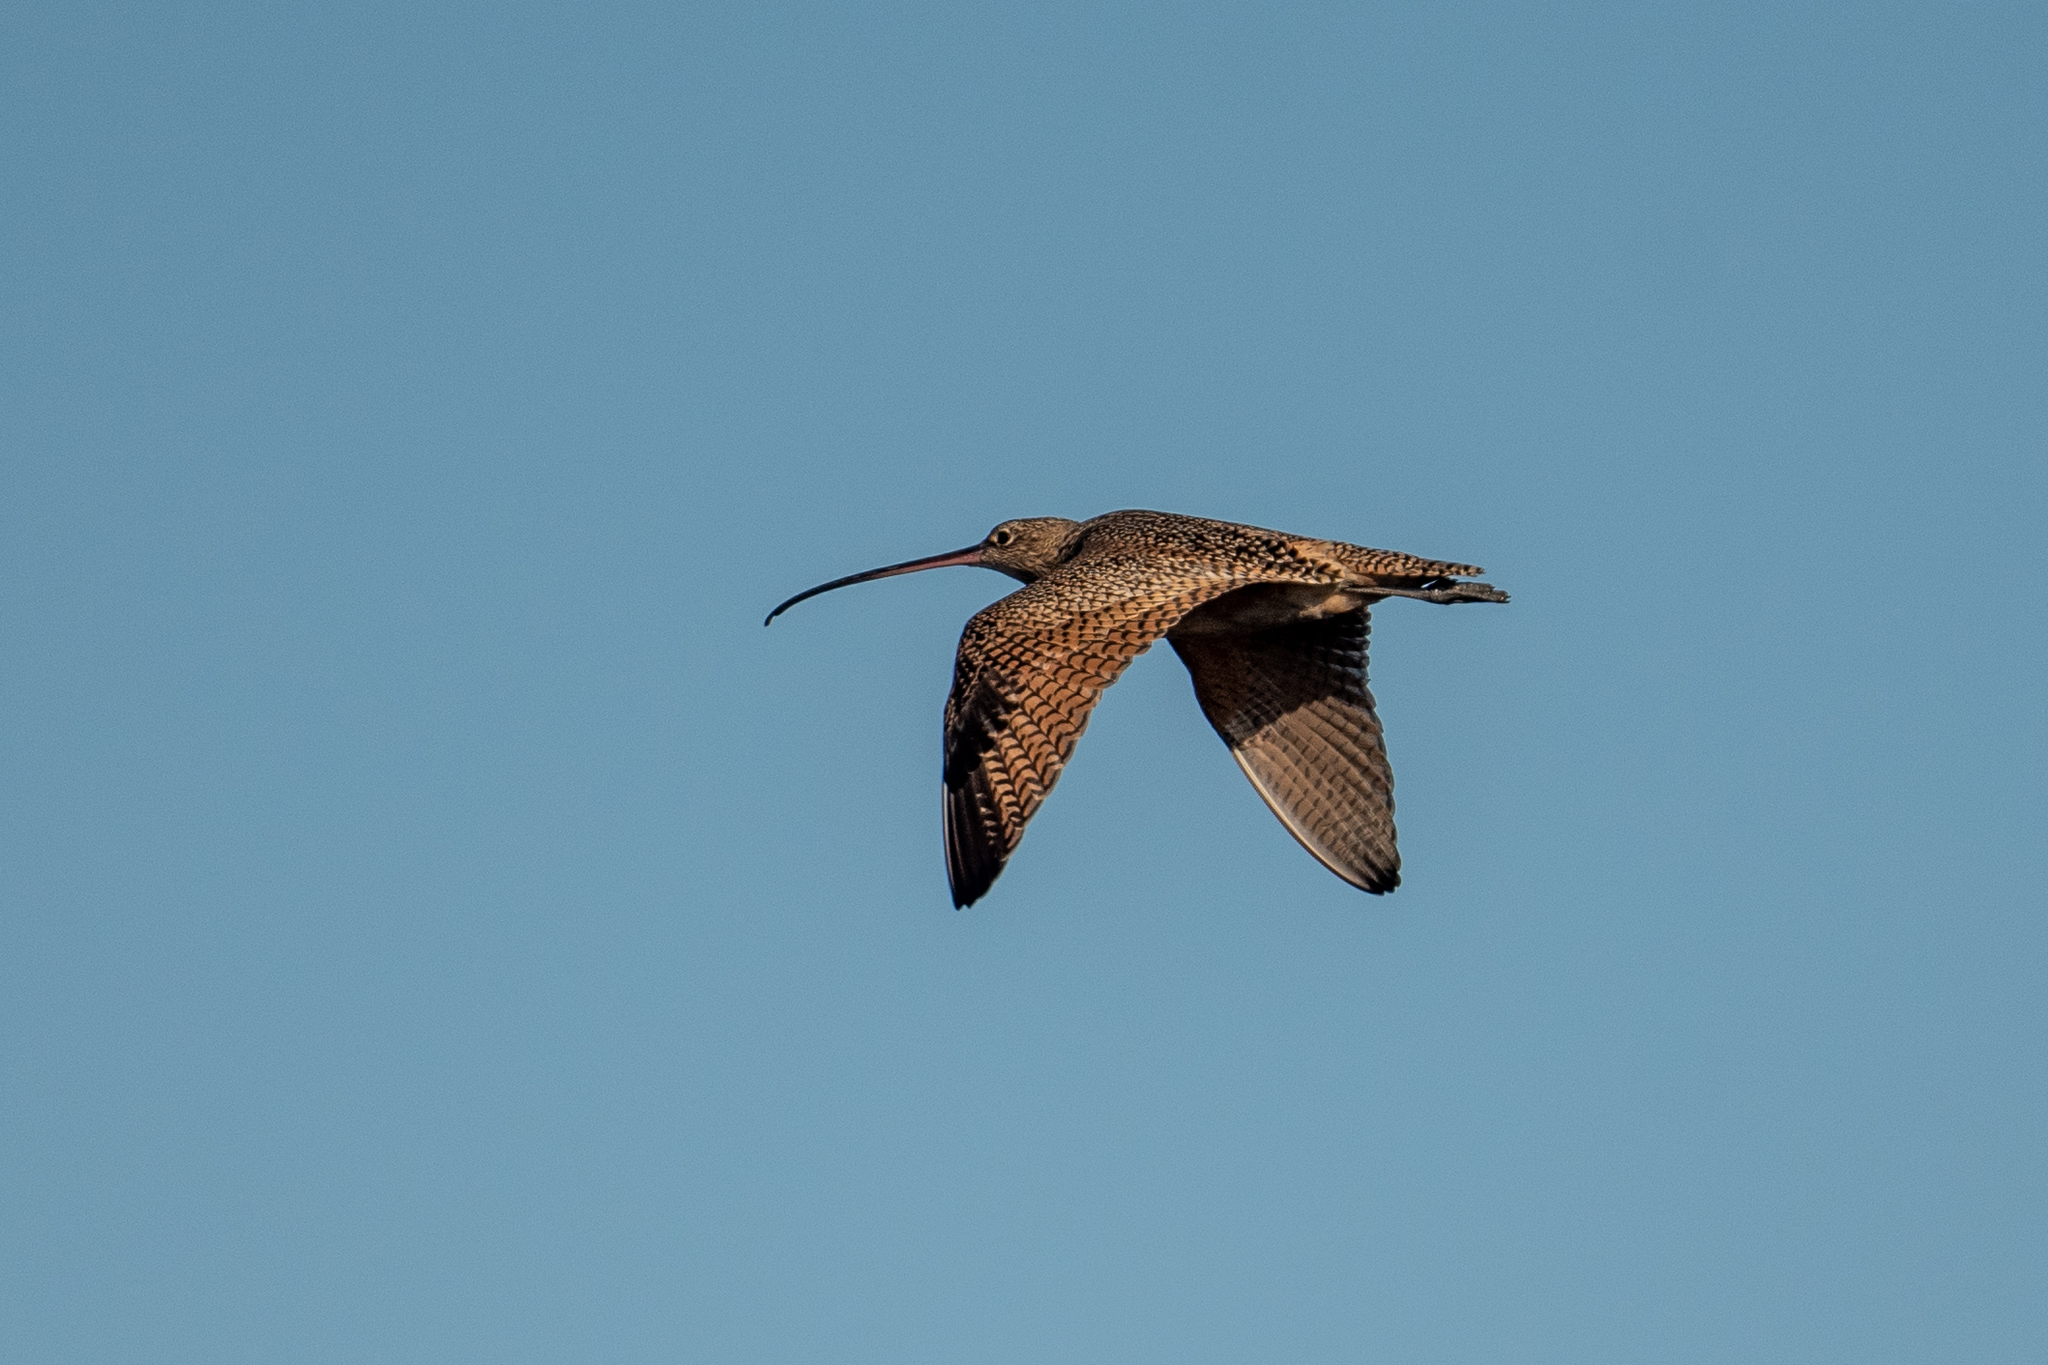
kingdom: Animalia
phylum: Chordata
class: Aves
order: Charadriiformes
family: Scolopacidae
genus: Numenius
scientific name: Numenius americanus
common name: Long-billed curlew
